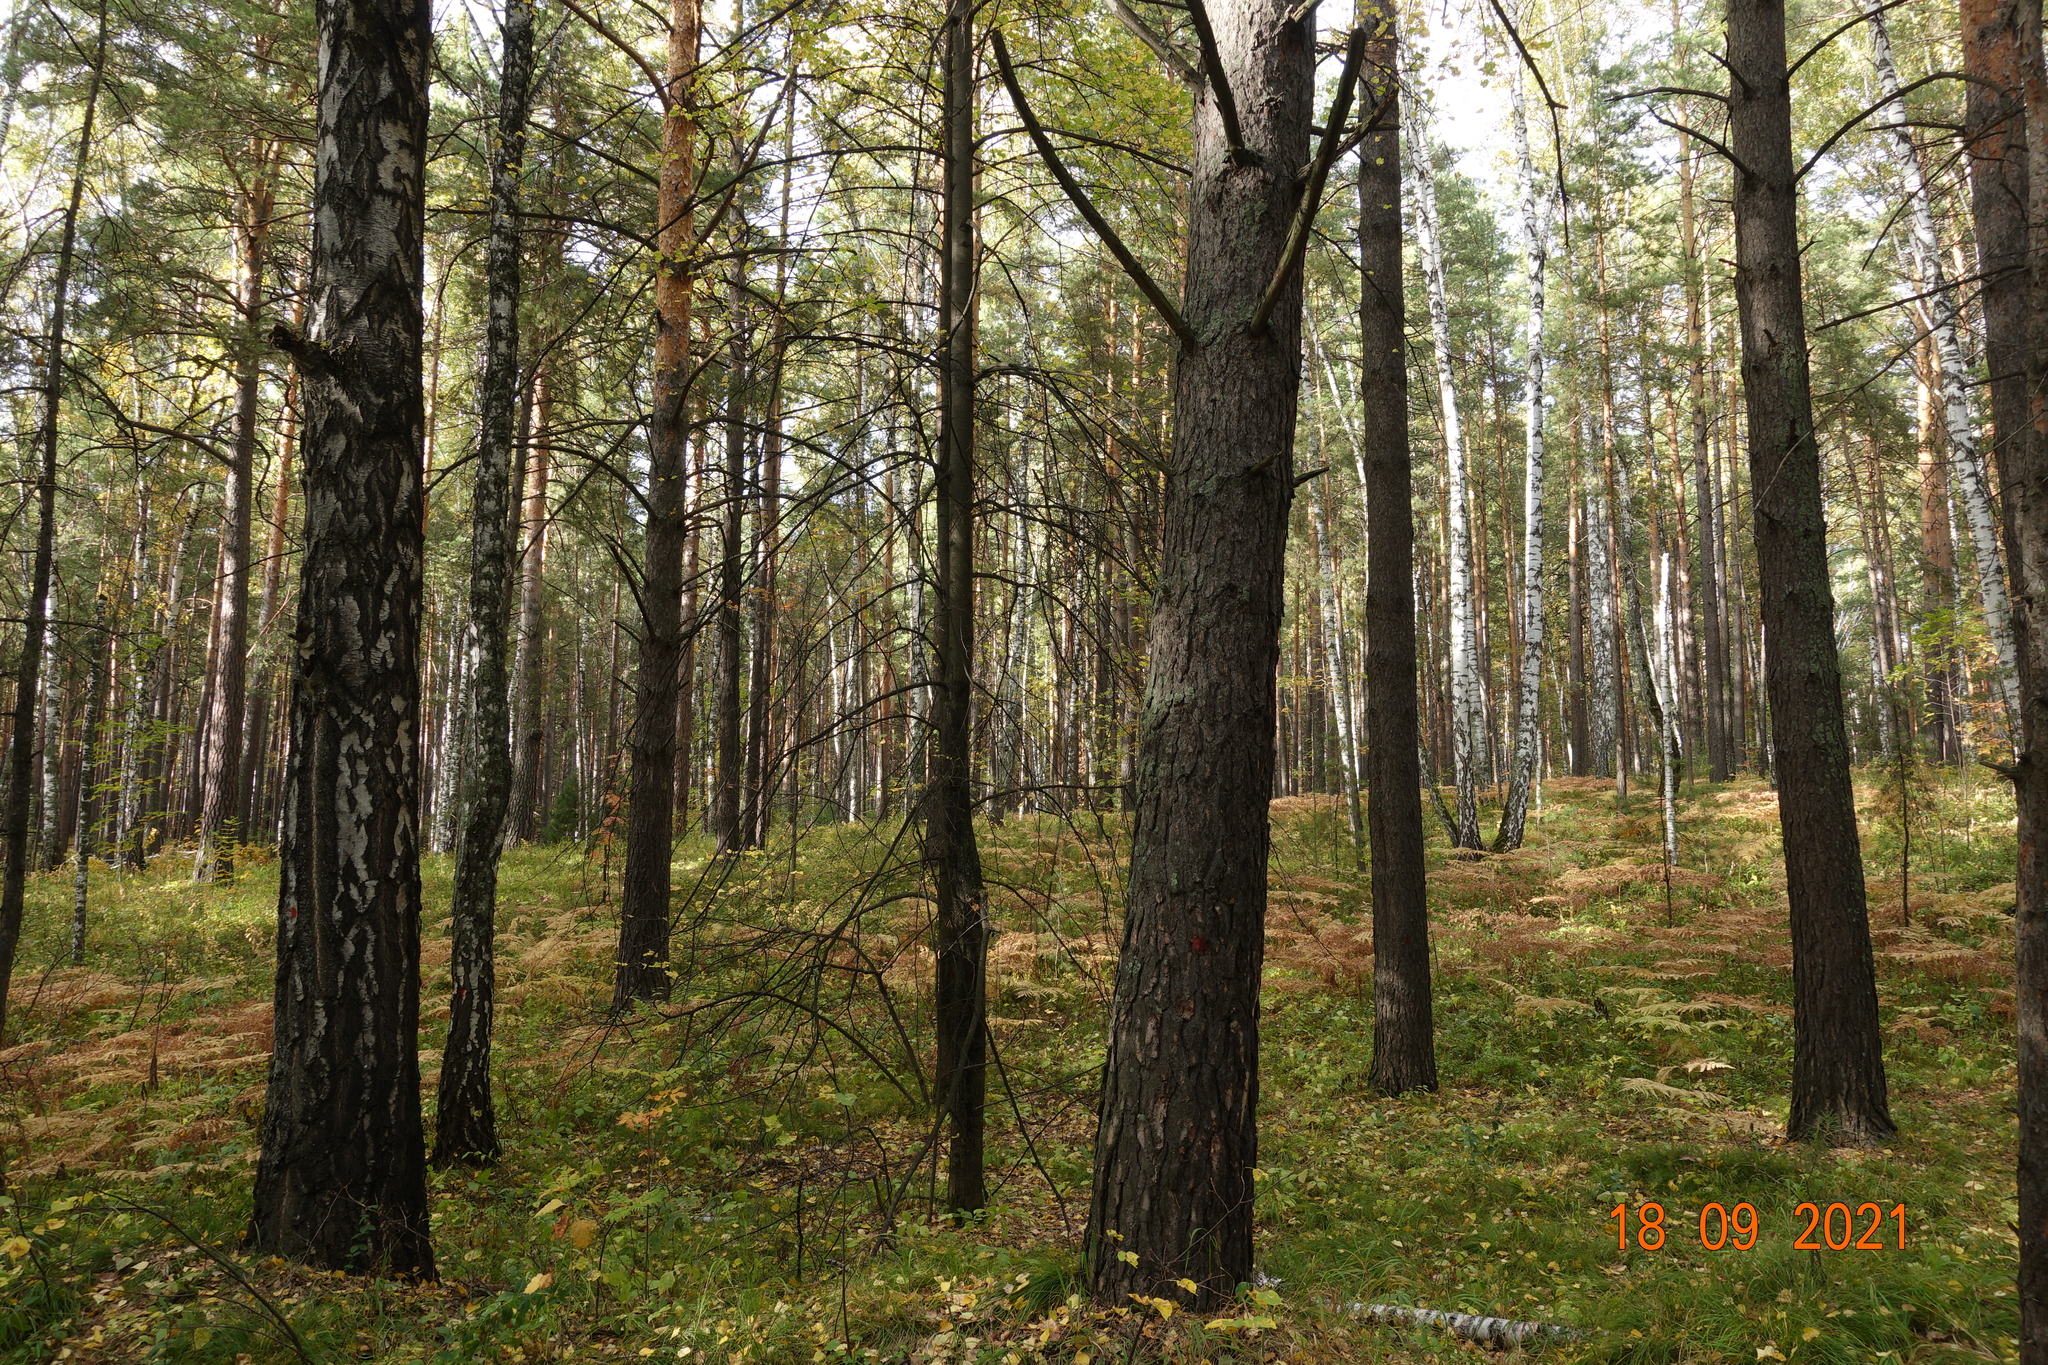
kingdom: Plantae
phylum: Tracheophyta
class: Pinopsida
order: Pinales
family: Pinaceae
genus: Pinus
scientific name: Pinus sylvestris
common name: Scots pine
